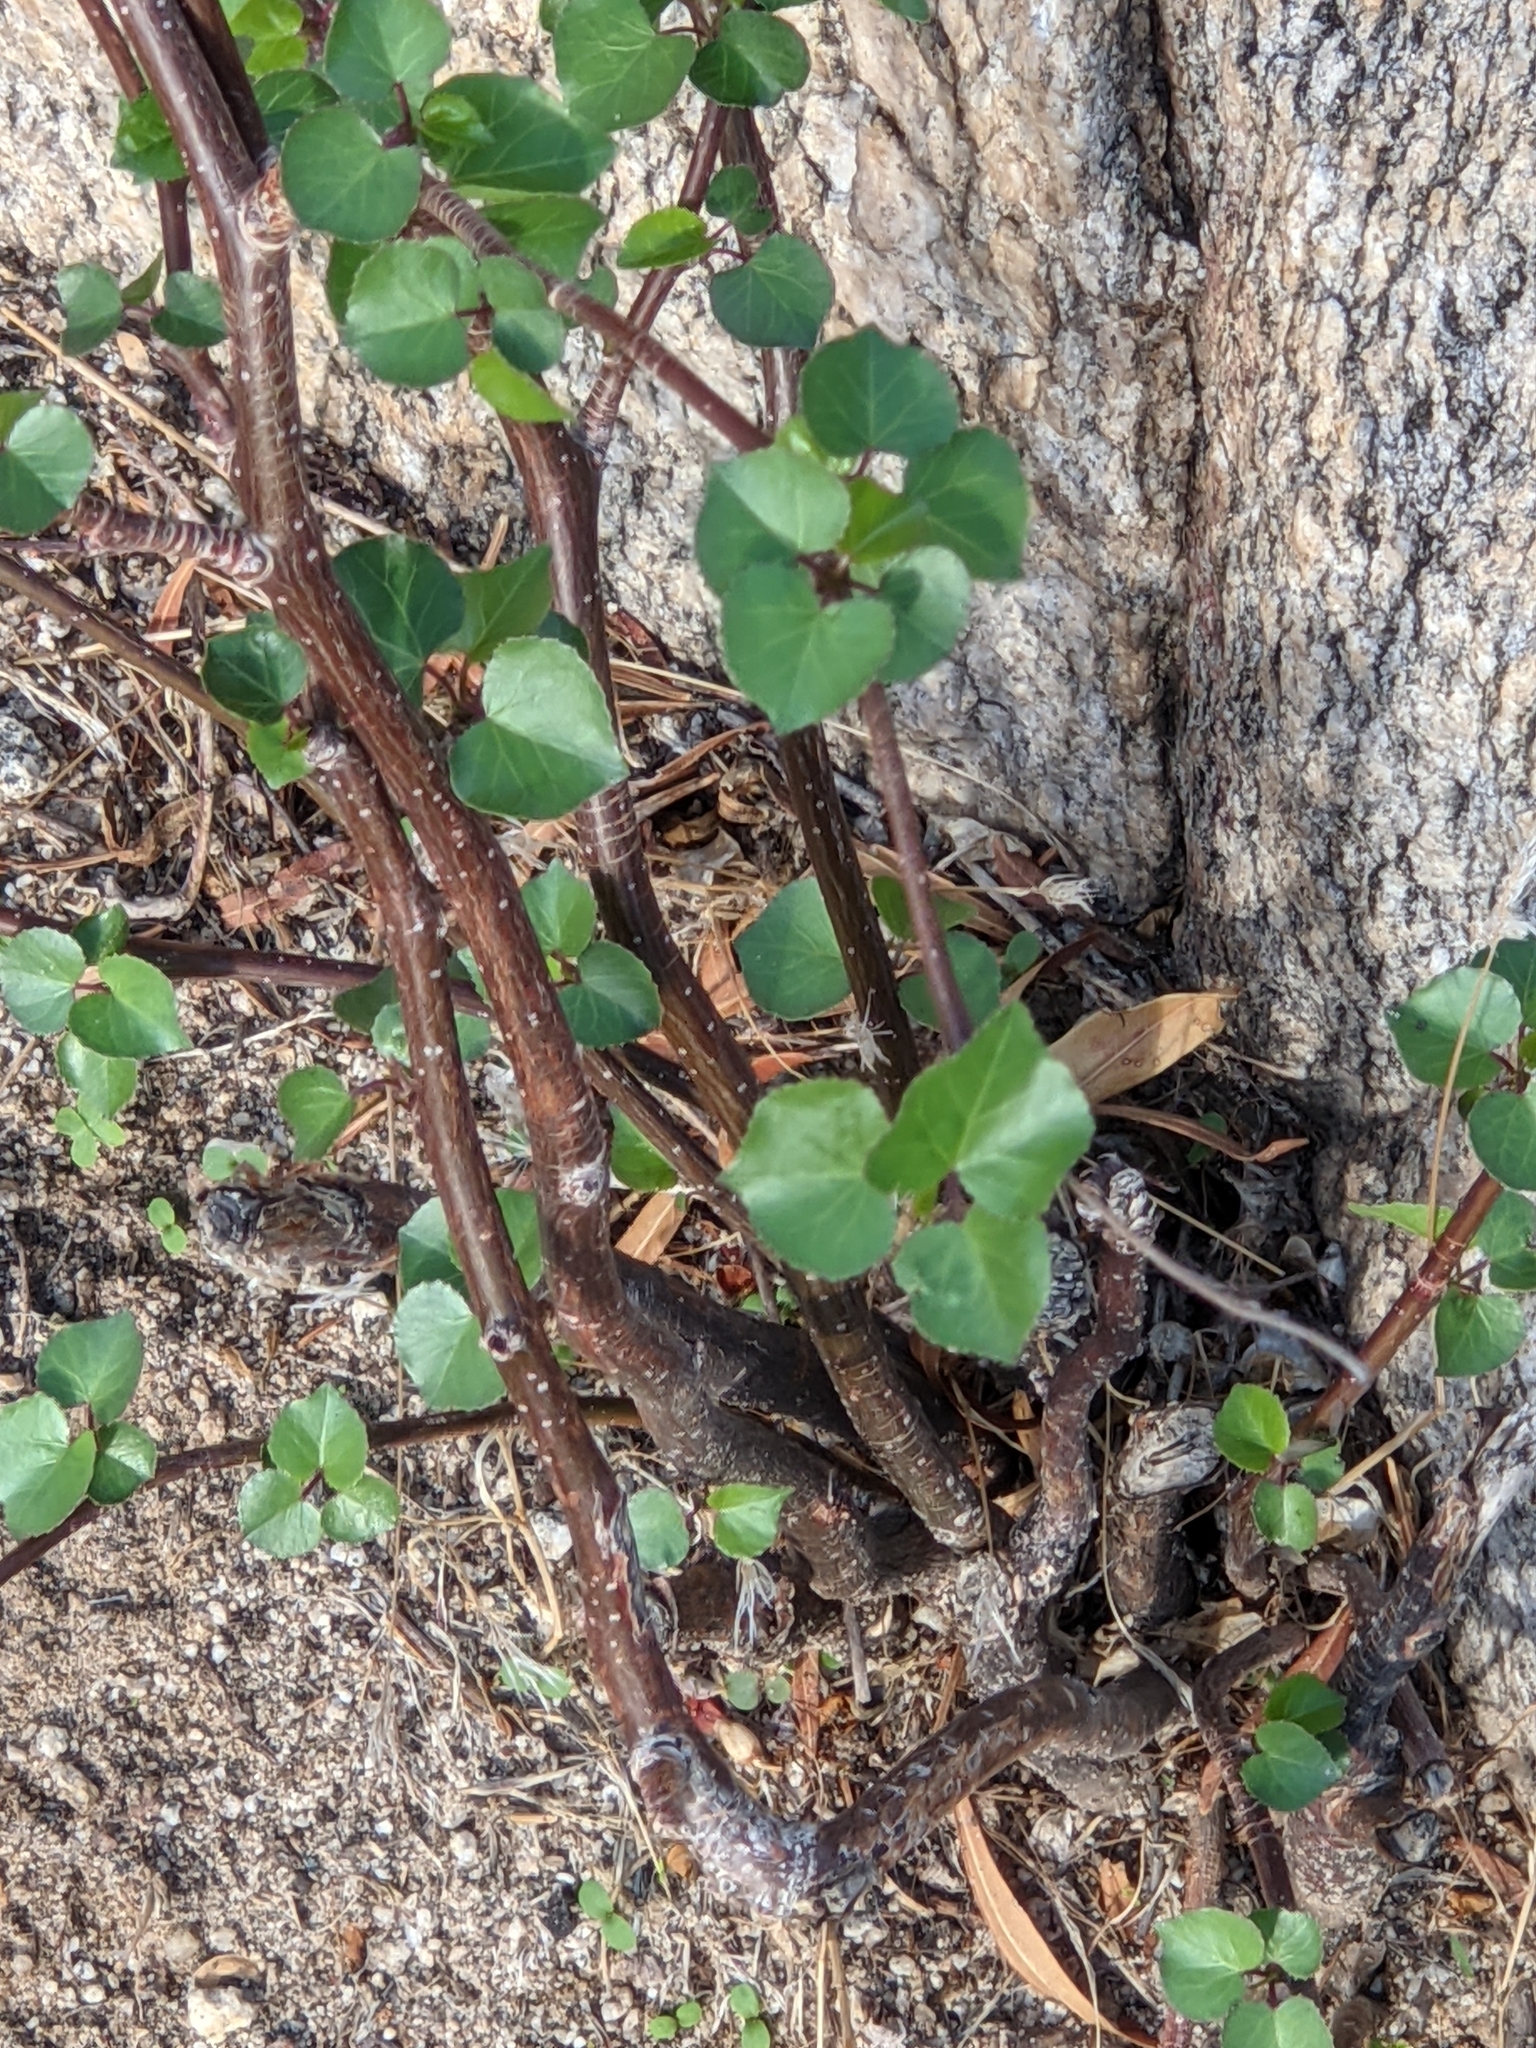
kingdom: Plantae
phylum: Tracheophyta
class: Magnoliopsida
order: Malpighiales
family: Euphorbiaceae
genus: Jatropha
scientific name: Jatropha cardiophylla
